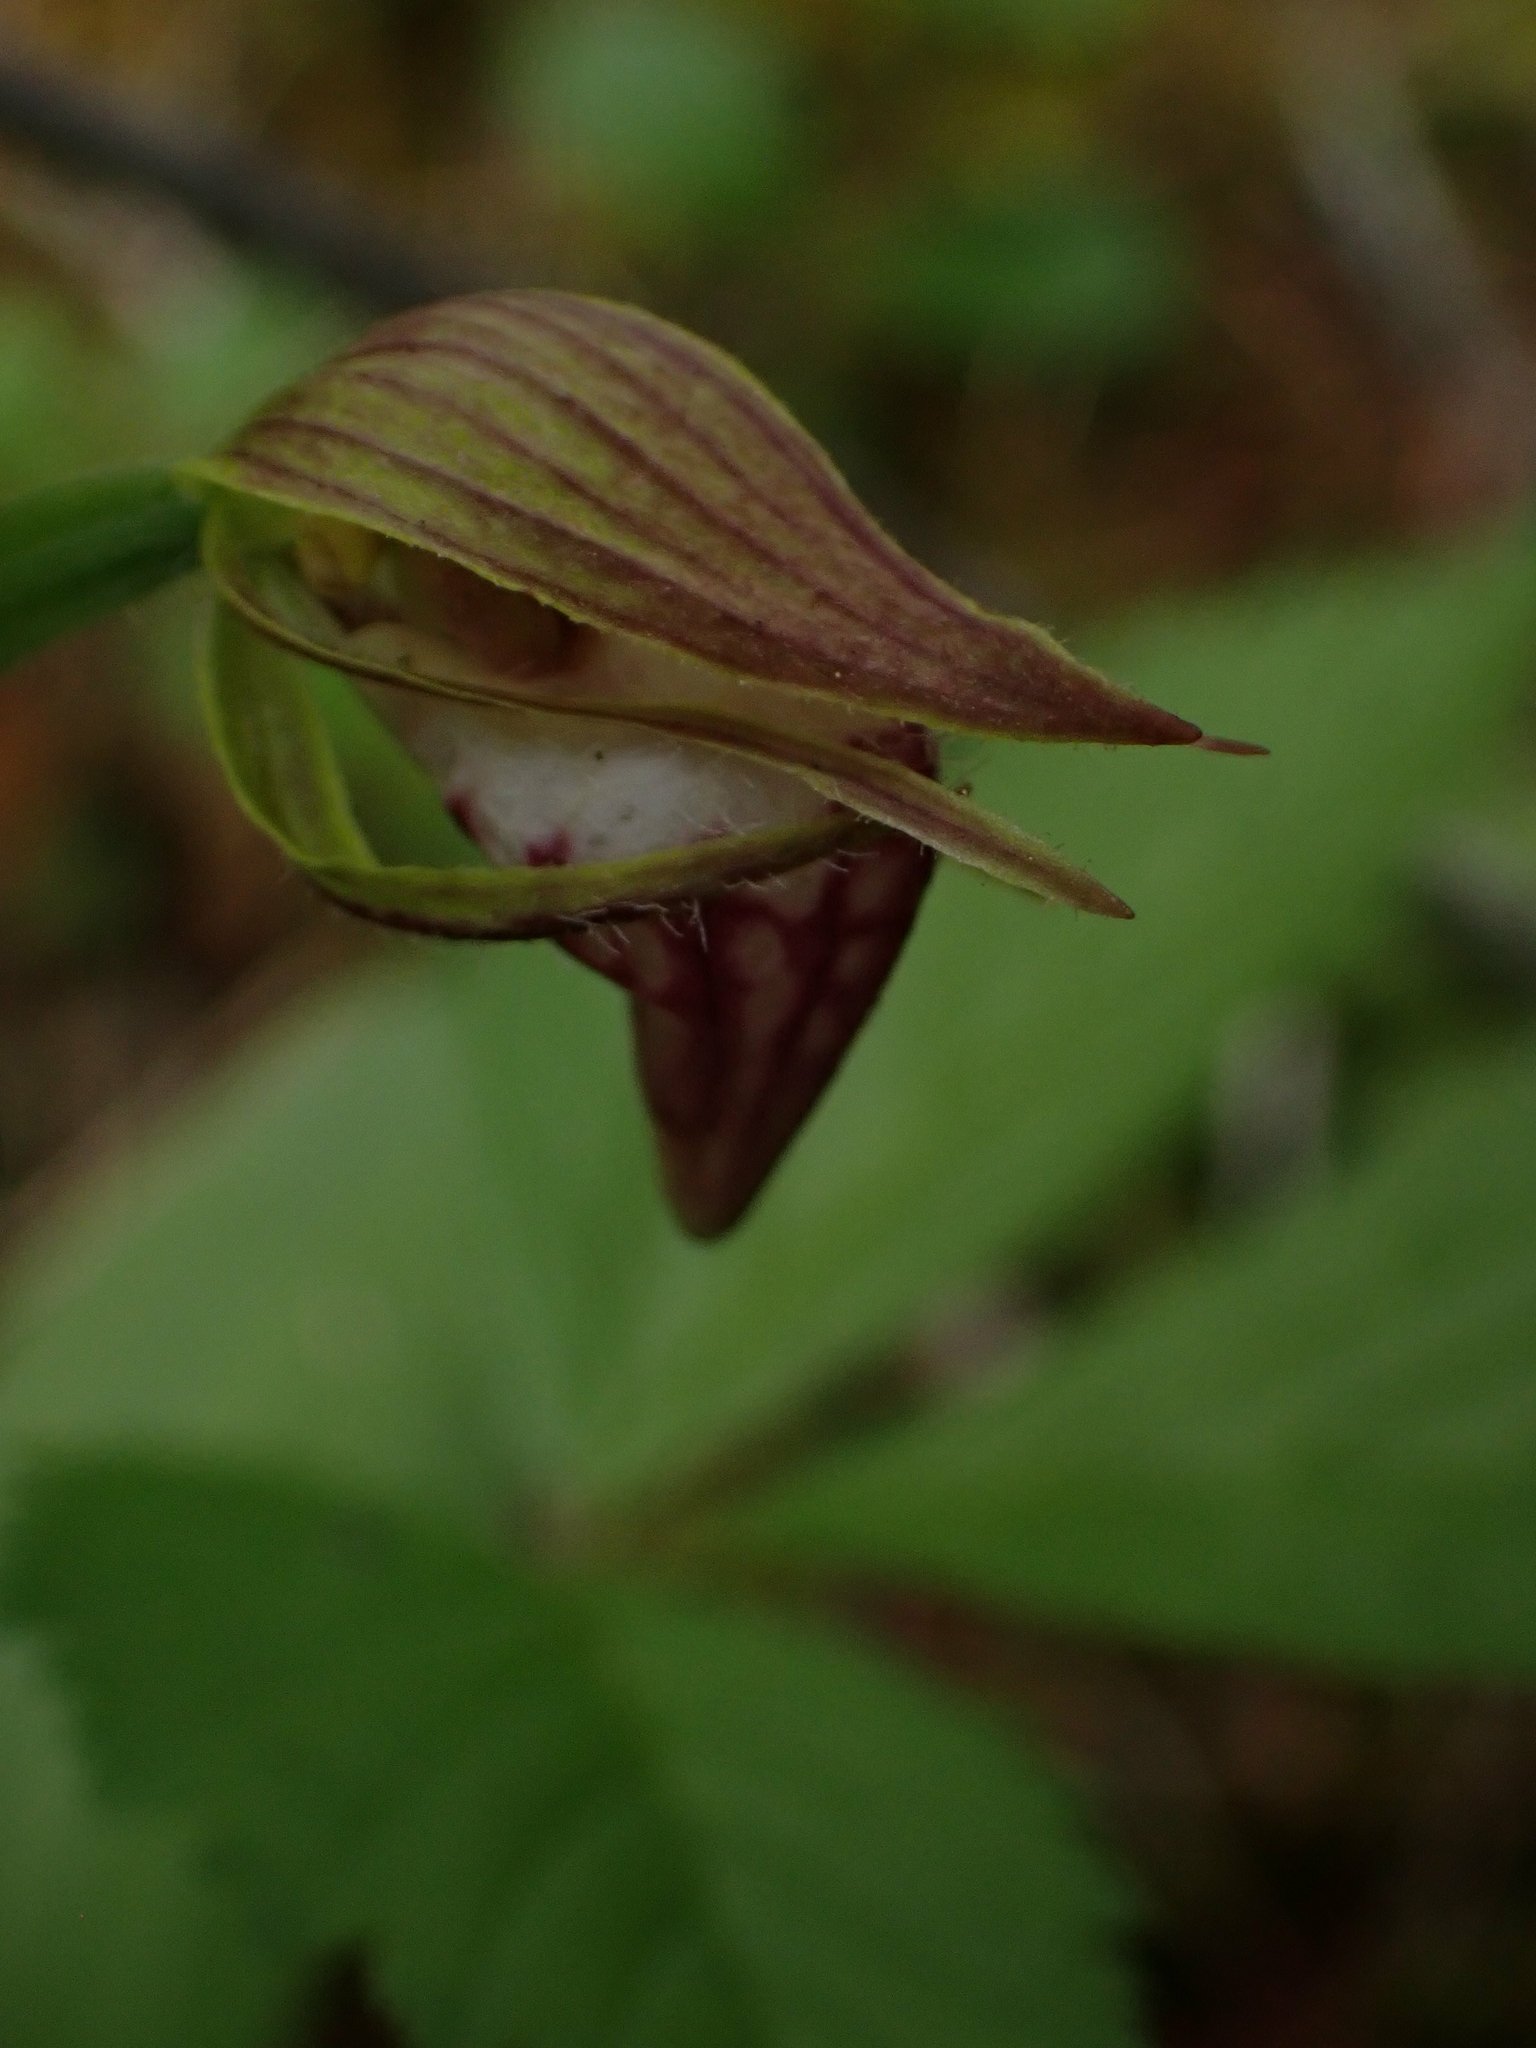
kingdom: Plantae
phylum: Tracheophyta
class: Liliopsida
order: Asparagales
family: Orchidaceae
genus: Cypripedium
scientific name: Cypripedium arietinum
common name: Ram's-head
